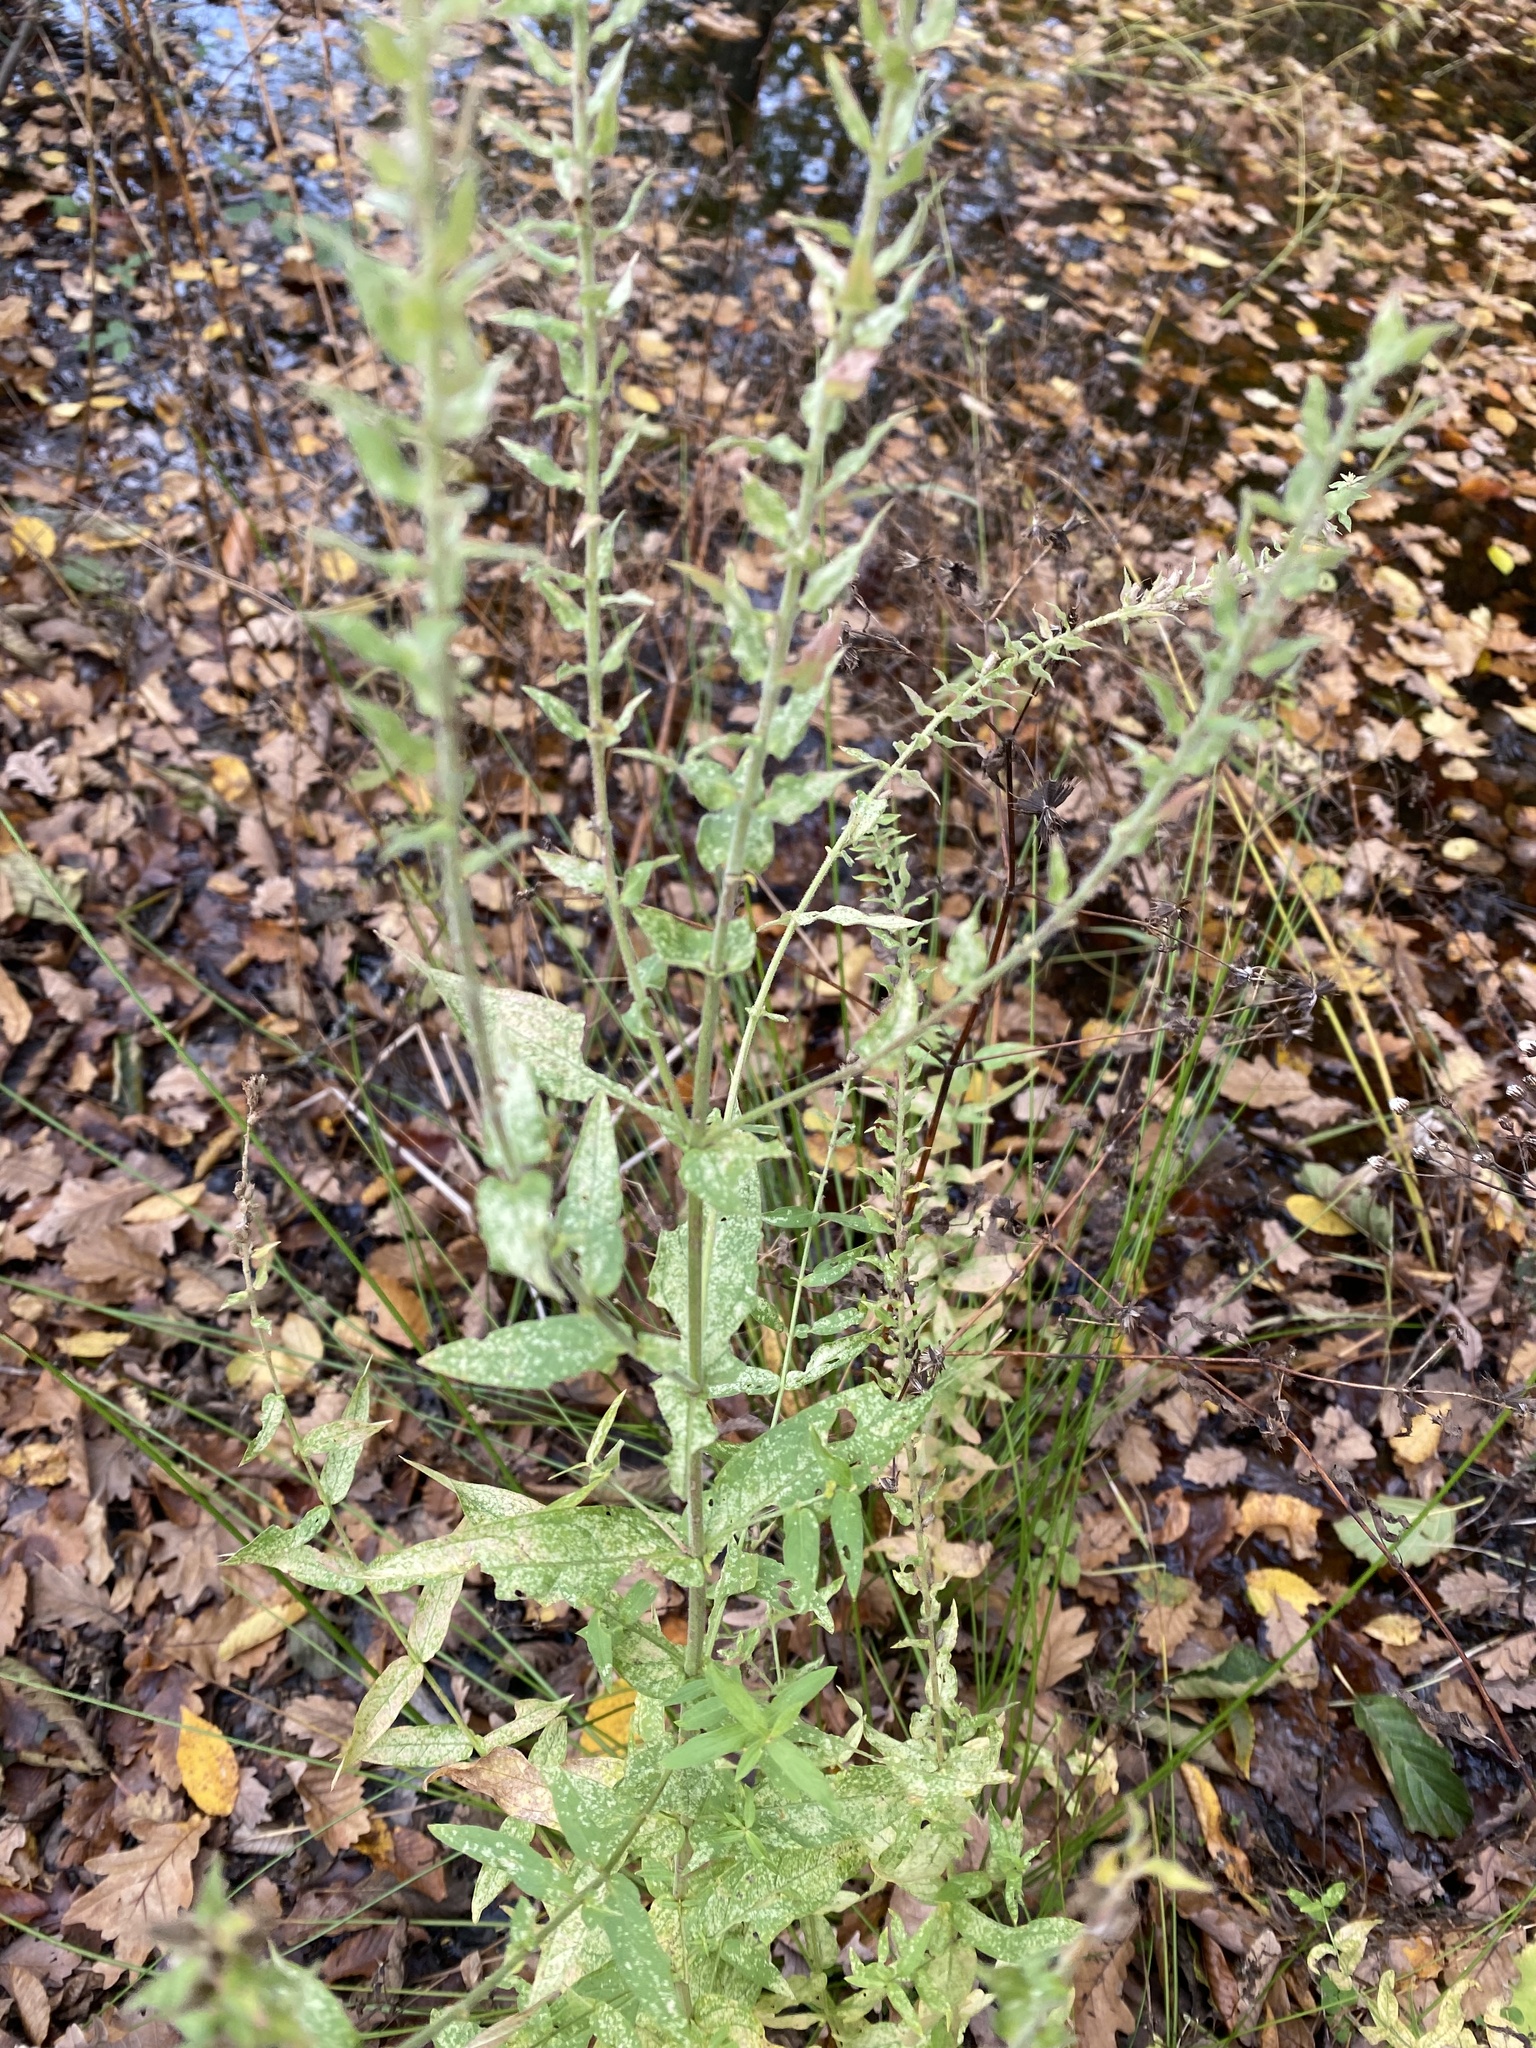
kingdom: Plantae
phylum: Tracheophyta
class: Magnoliopsida
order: Myrtales
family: Lythraceae
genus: Lythrum
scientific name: Lythrum salicaria
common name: Purple loosestrife
